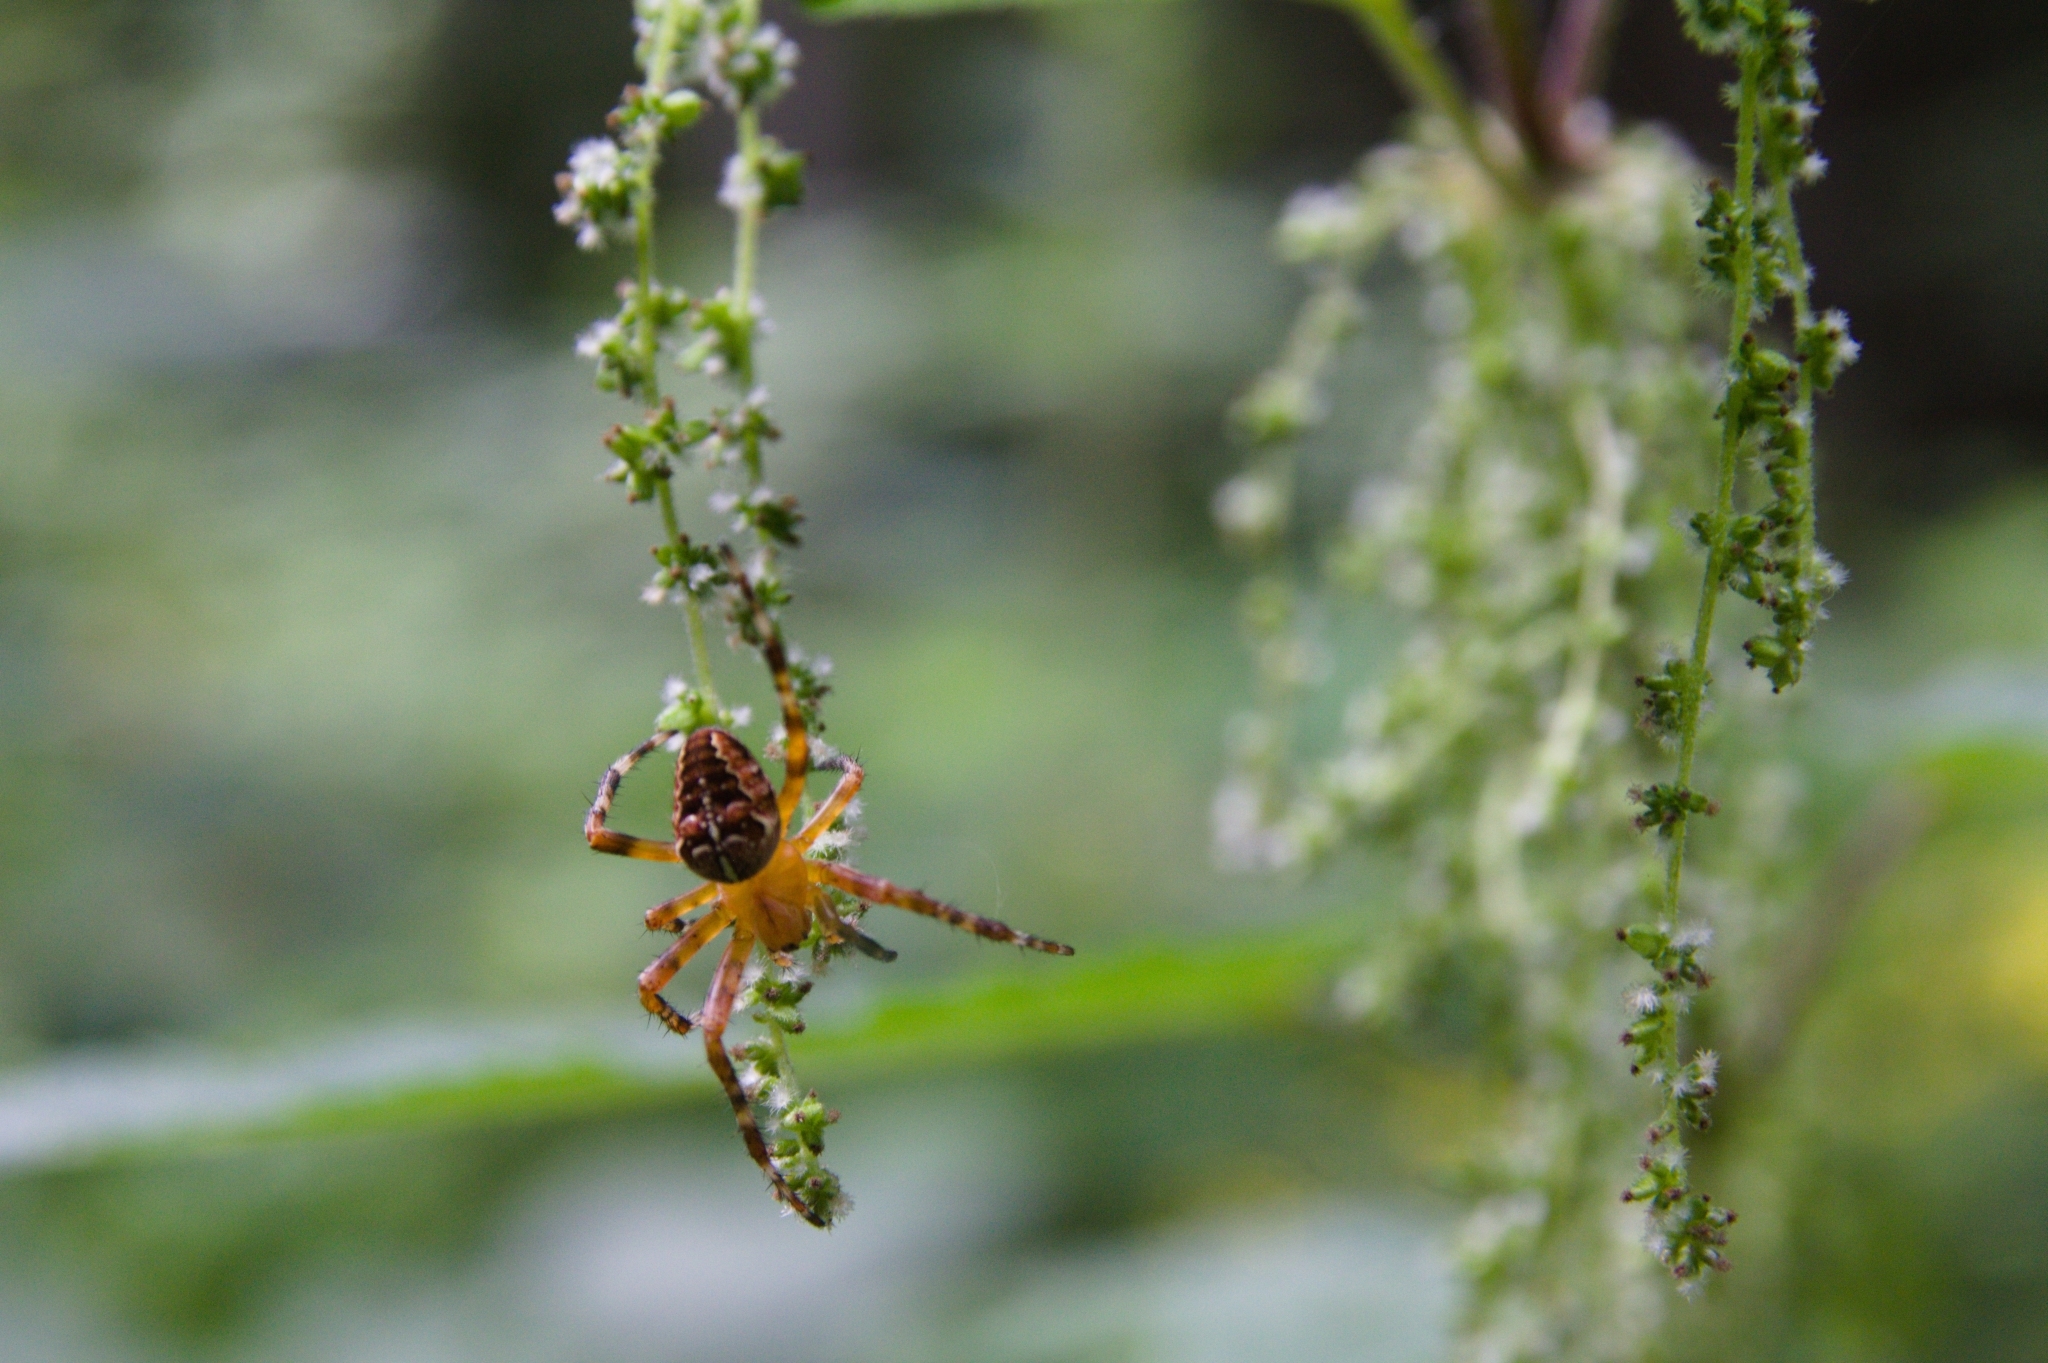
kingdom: Animalia
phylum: Arthropoda
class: Arachnida
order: Araneae
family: Araneidae
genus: Araneus
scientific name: Araneus diadematus
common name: Cross orbweaver
